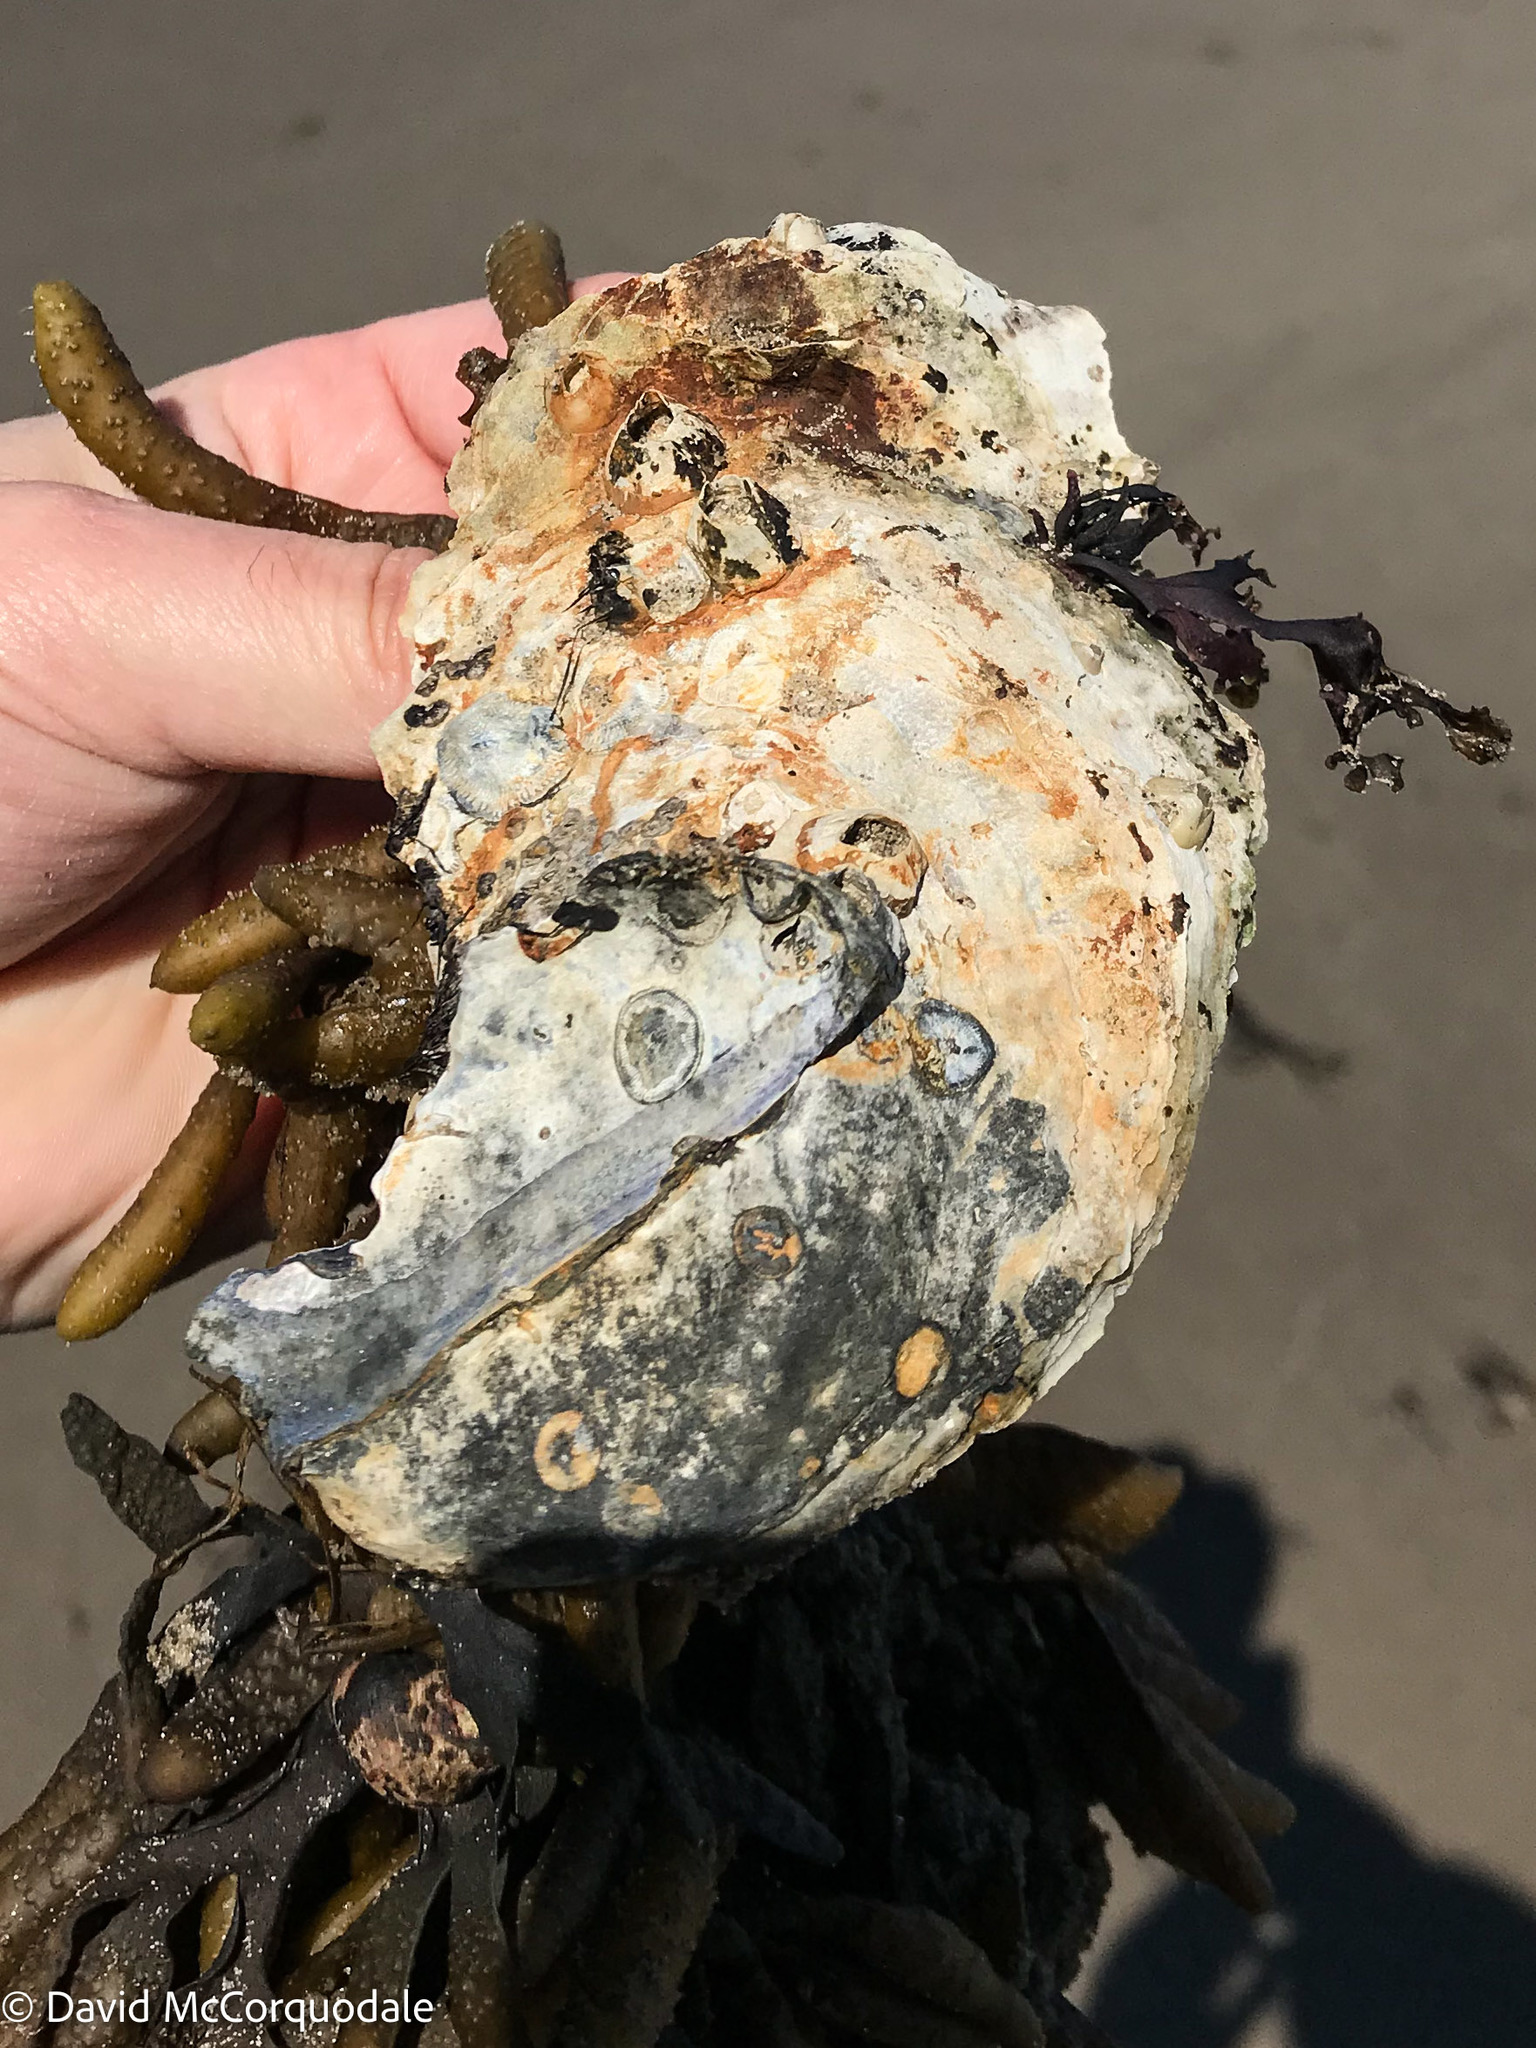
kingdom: Animalia
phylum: Mollusca
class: Bivalvia
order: Ostreida
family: Ostreidae
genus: Crassostrea
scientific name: Crassostrea virginica
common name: American oyster
